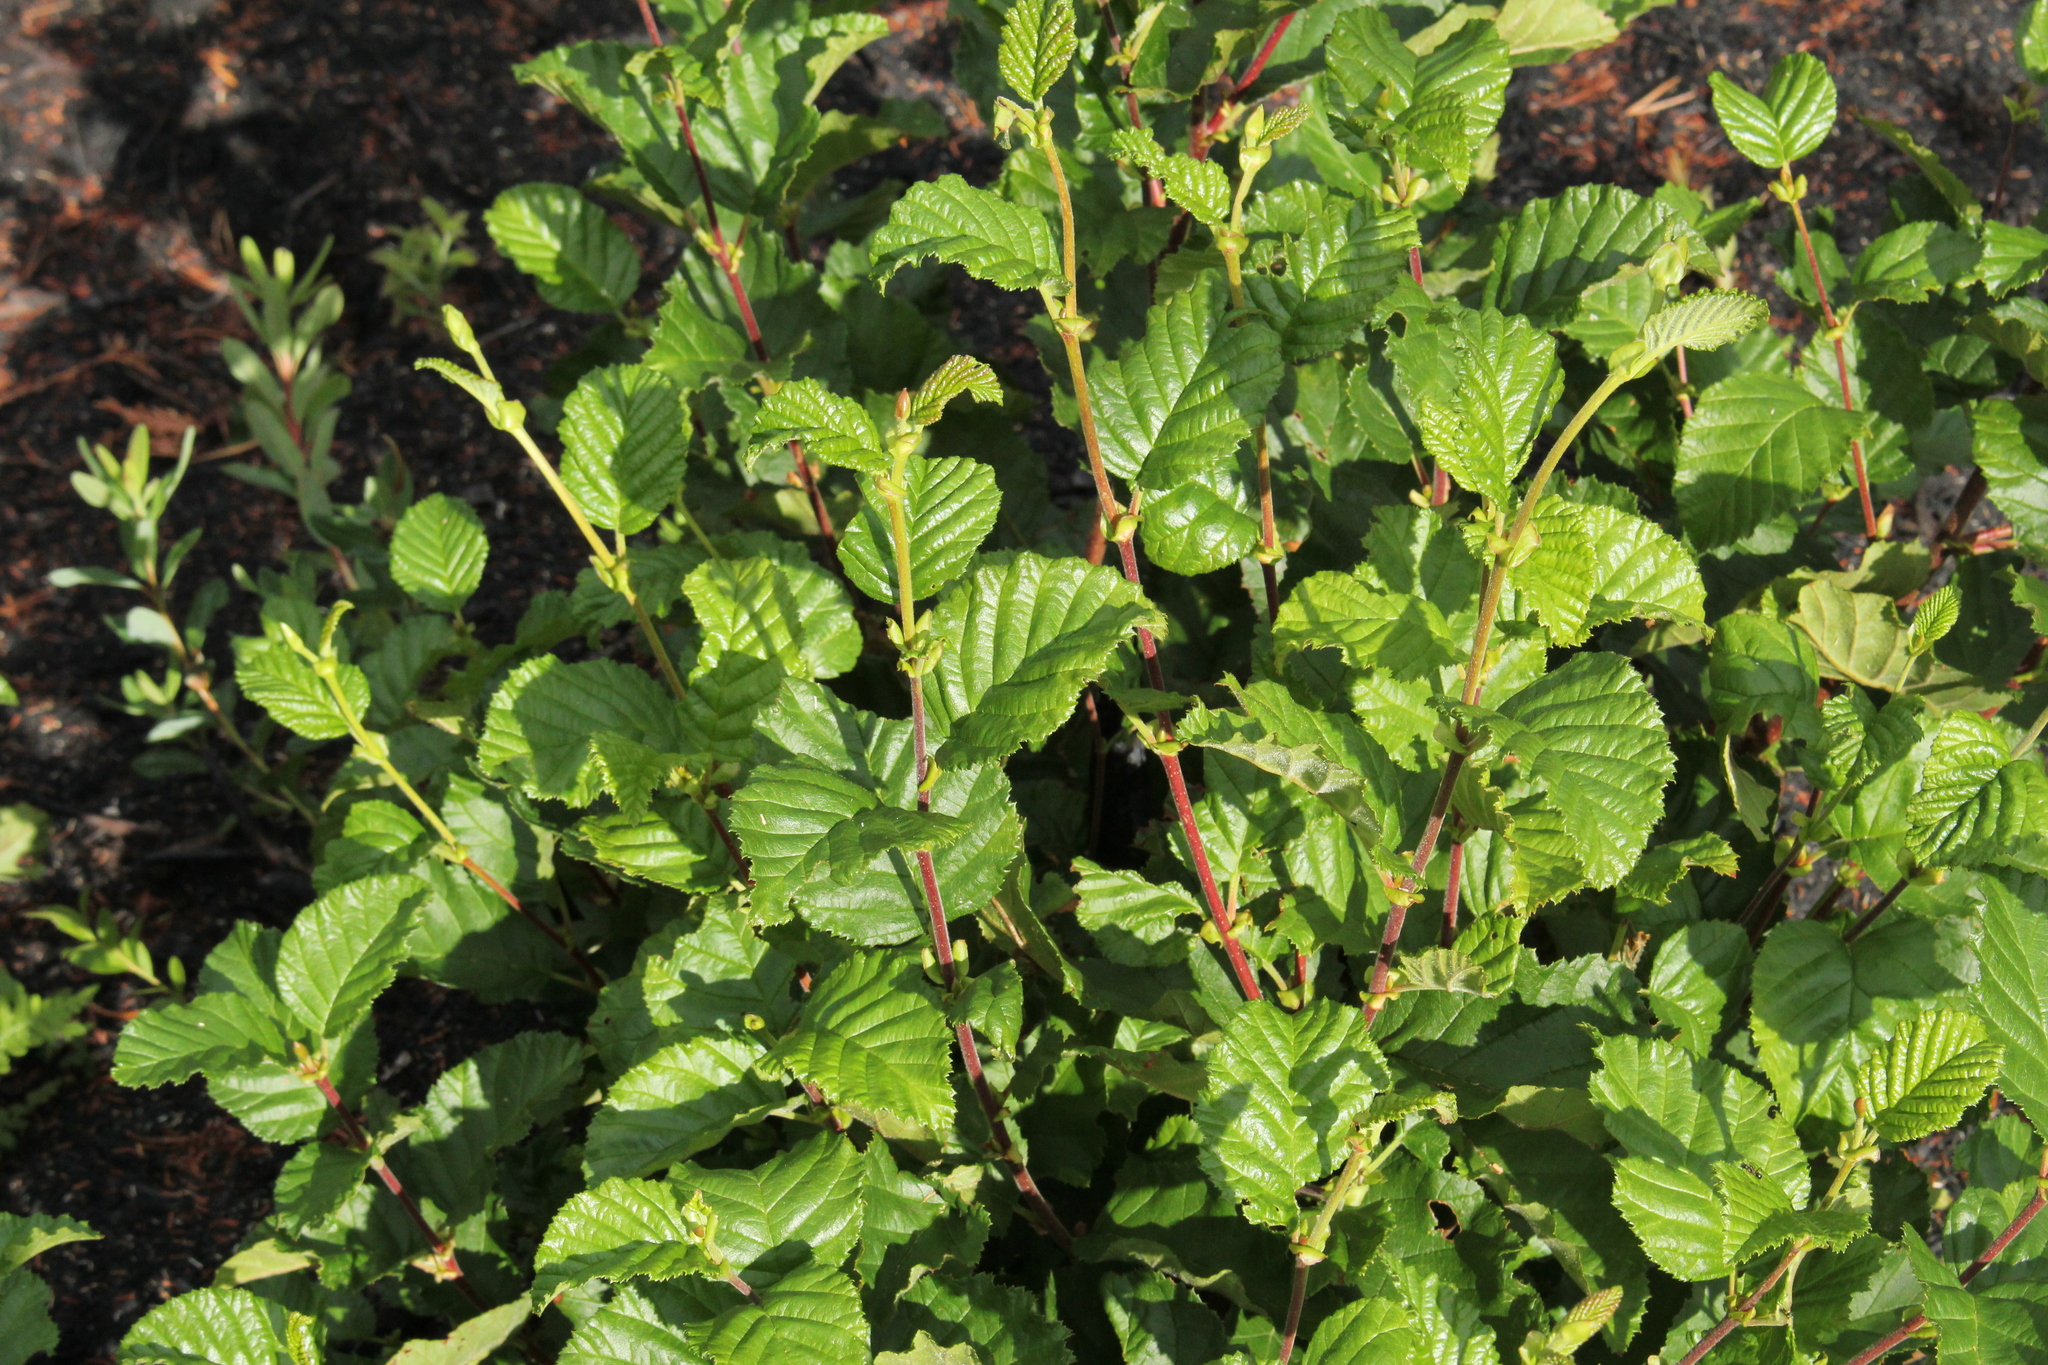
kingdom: Plantae
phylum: Tracheophyta
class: Magnoliopsida
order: Fagales
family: Betulaceae
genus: Alnus
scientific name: Alnus alnobetula
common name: Green alder
